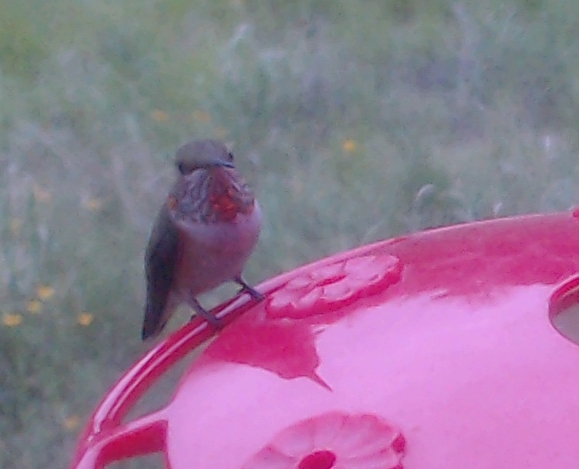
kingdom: Animalia
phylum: Chordata
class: Aves
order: Apodiformes
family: Trochilidae
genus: Selasphorus
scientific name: Selasphorus rufus
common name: Rufous hummingbird
